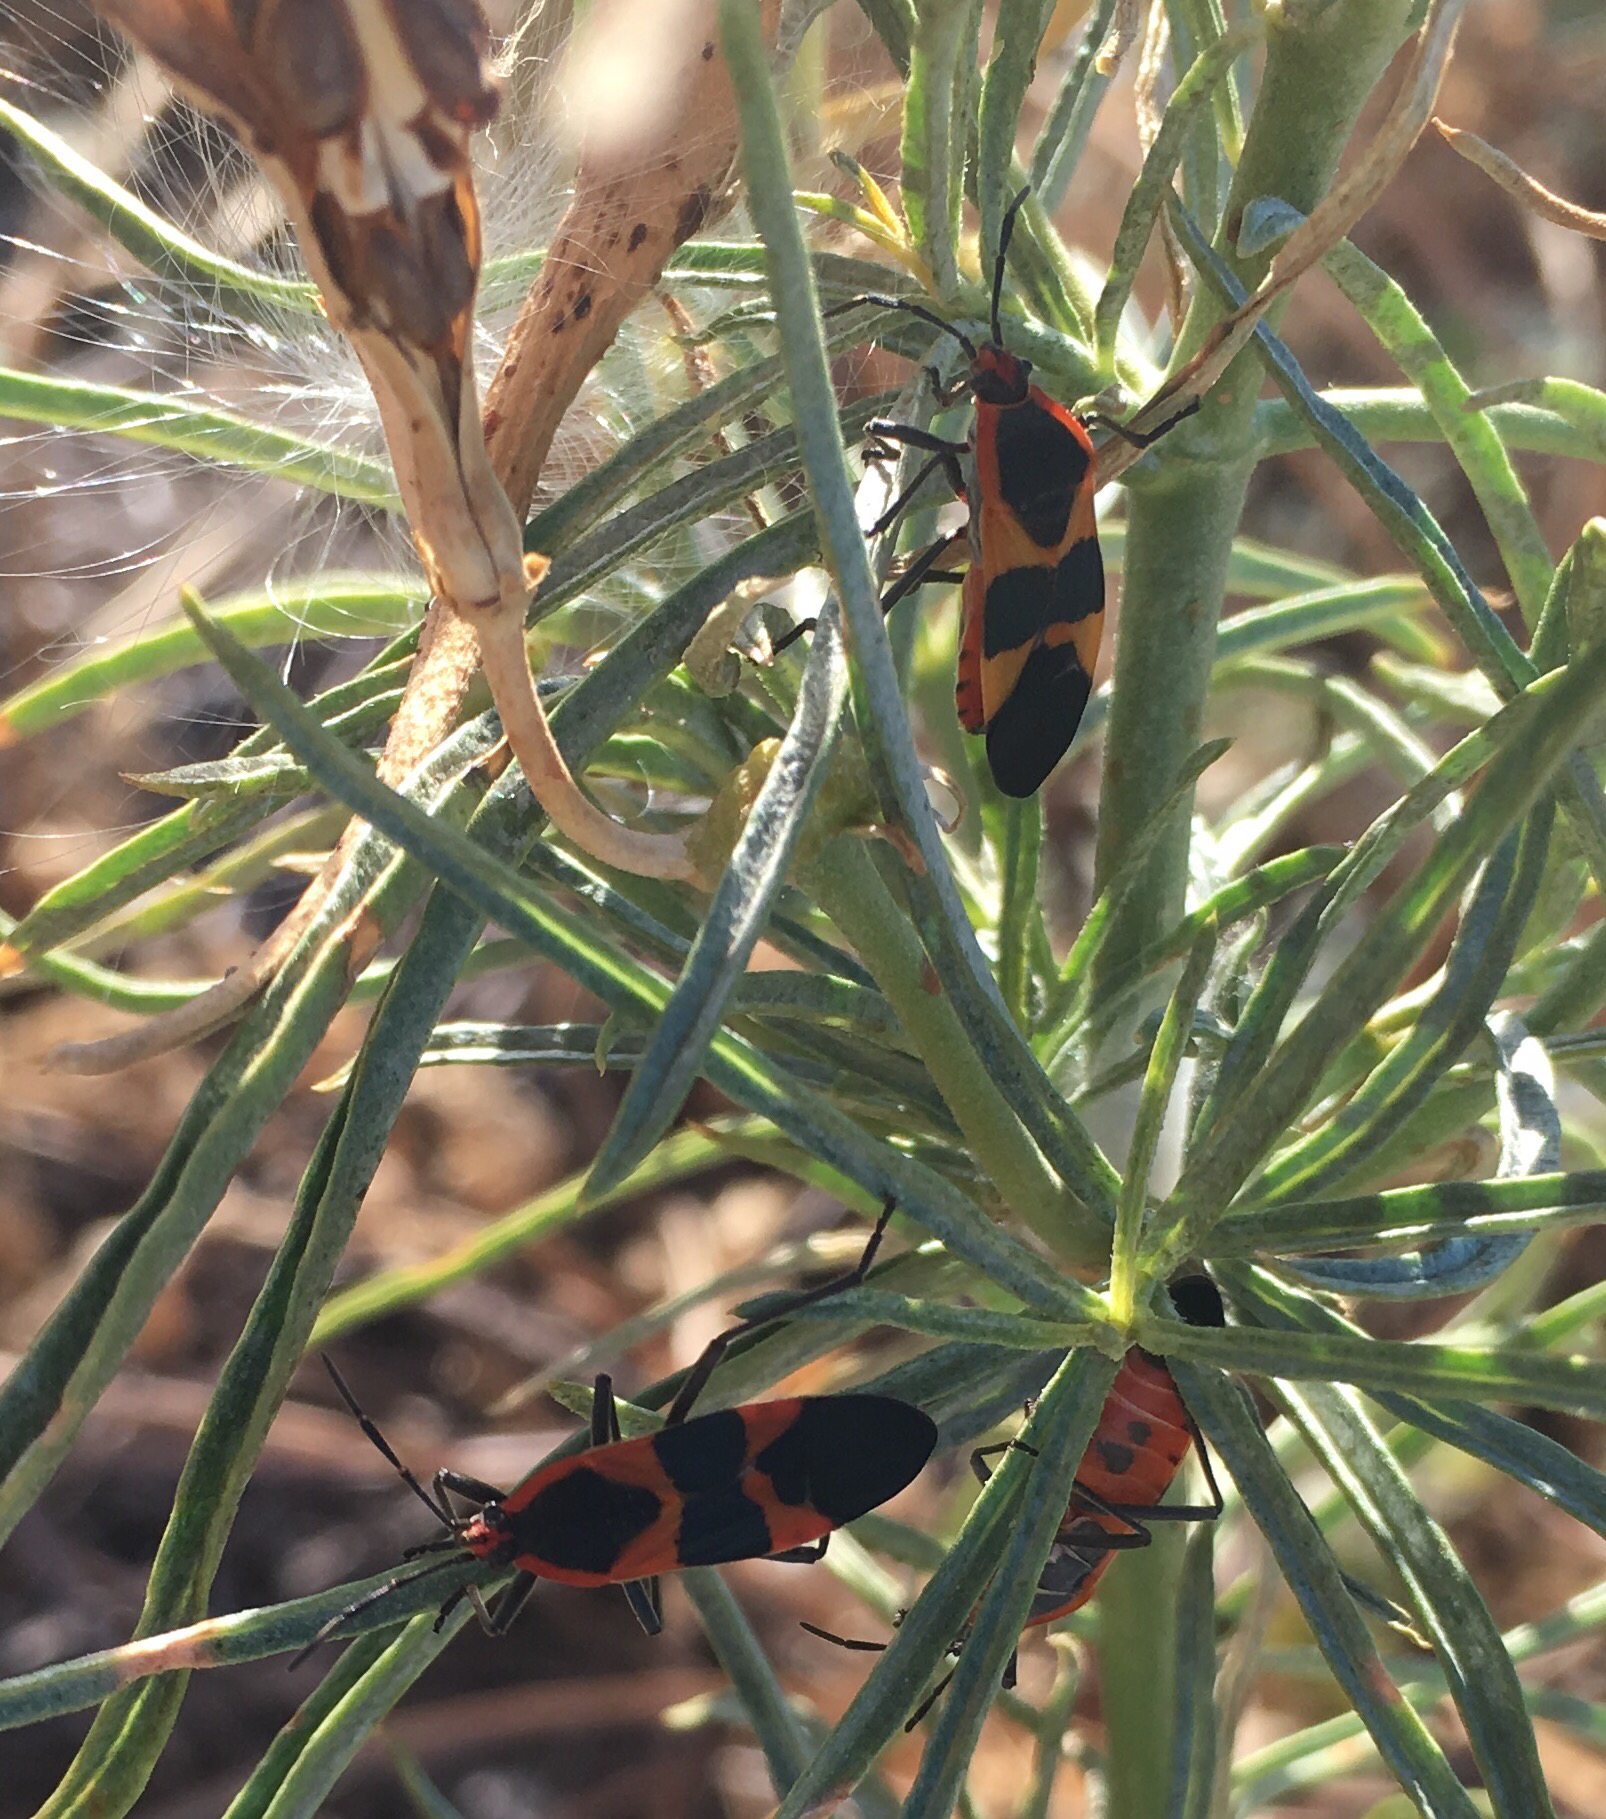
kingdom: Animalia
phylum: Arthropoda
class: Insecta
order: Hemiptera
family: Lygaeidae
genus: Oncopeltus
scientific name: Oncopeltus fasciatus
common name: Large milkweed bug
